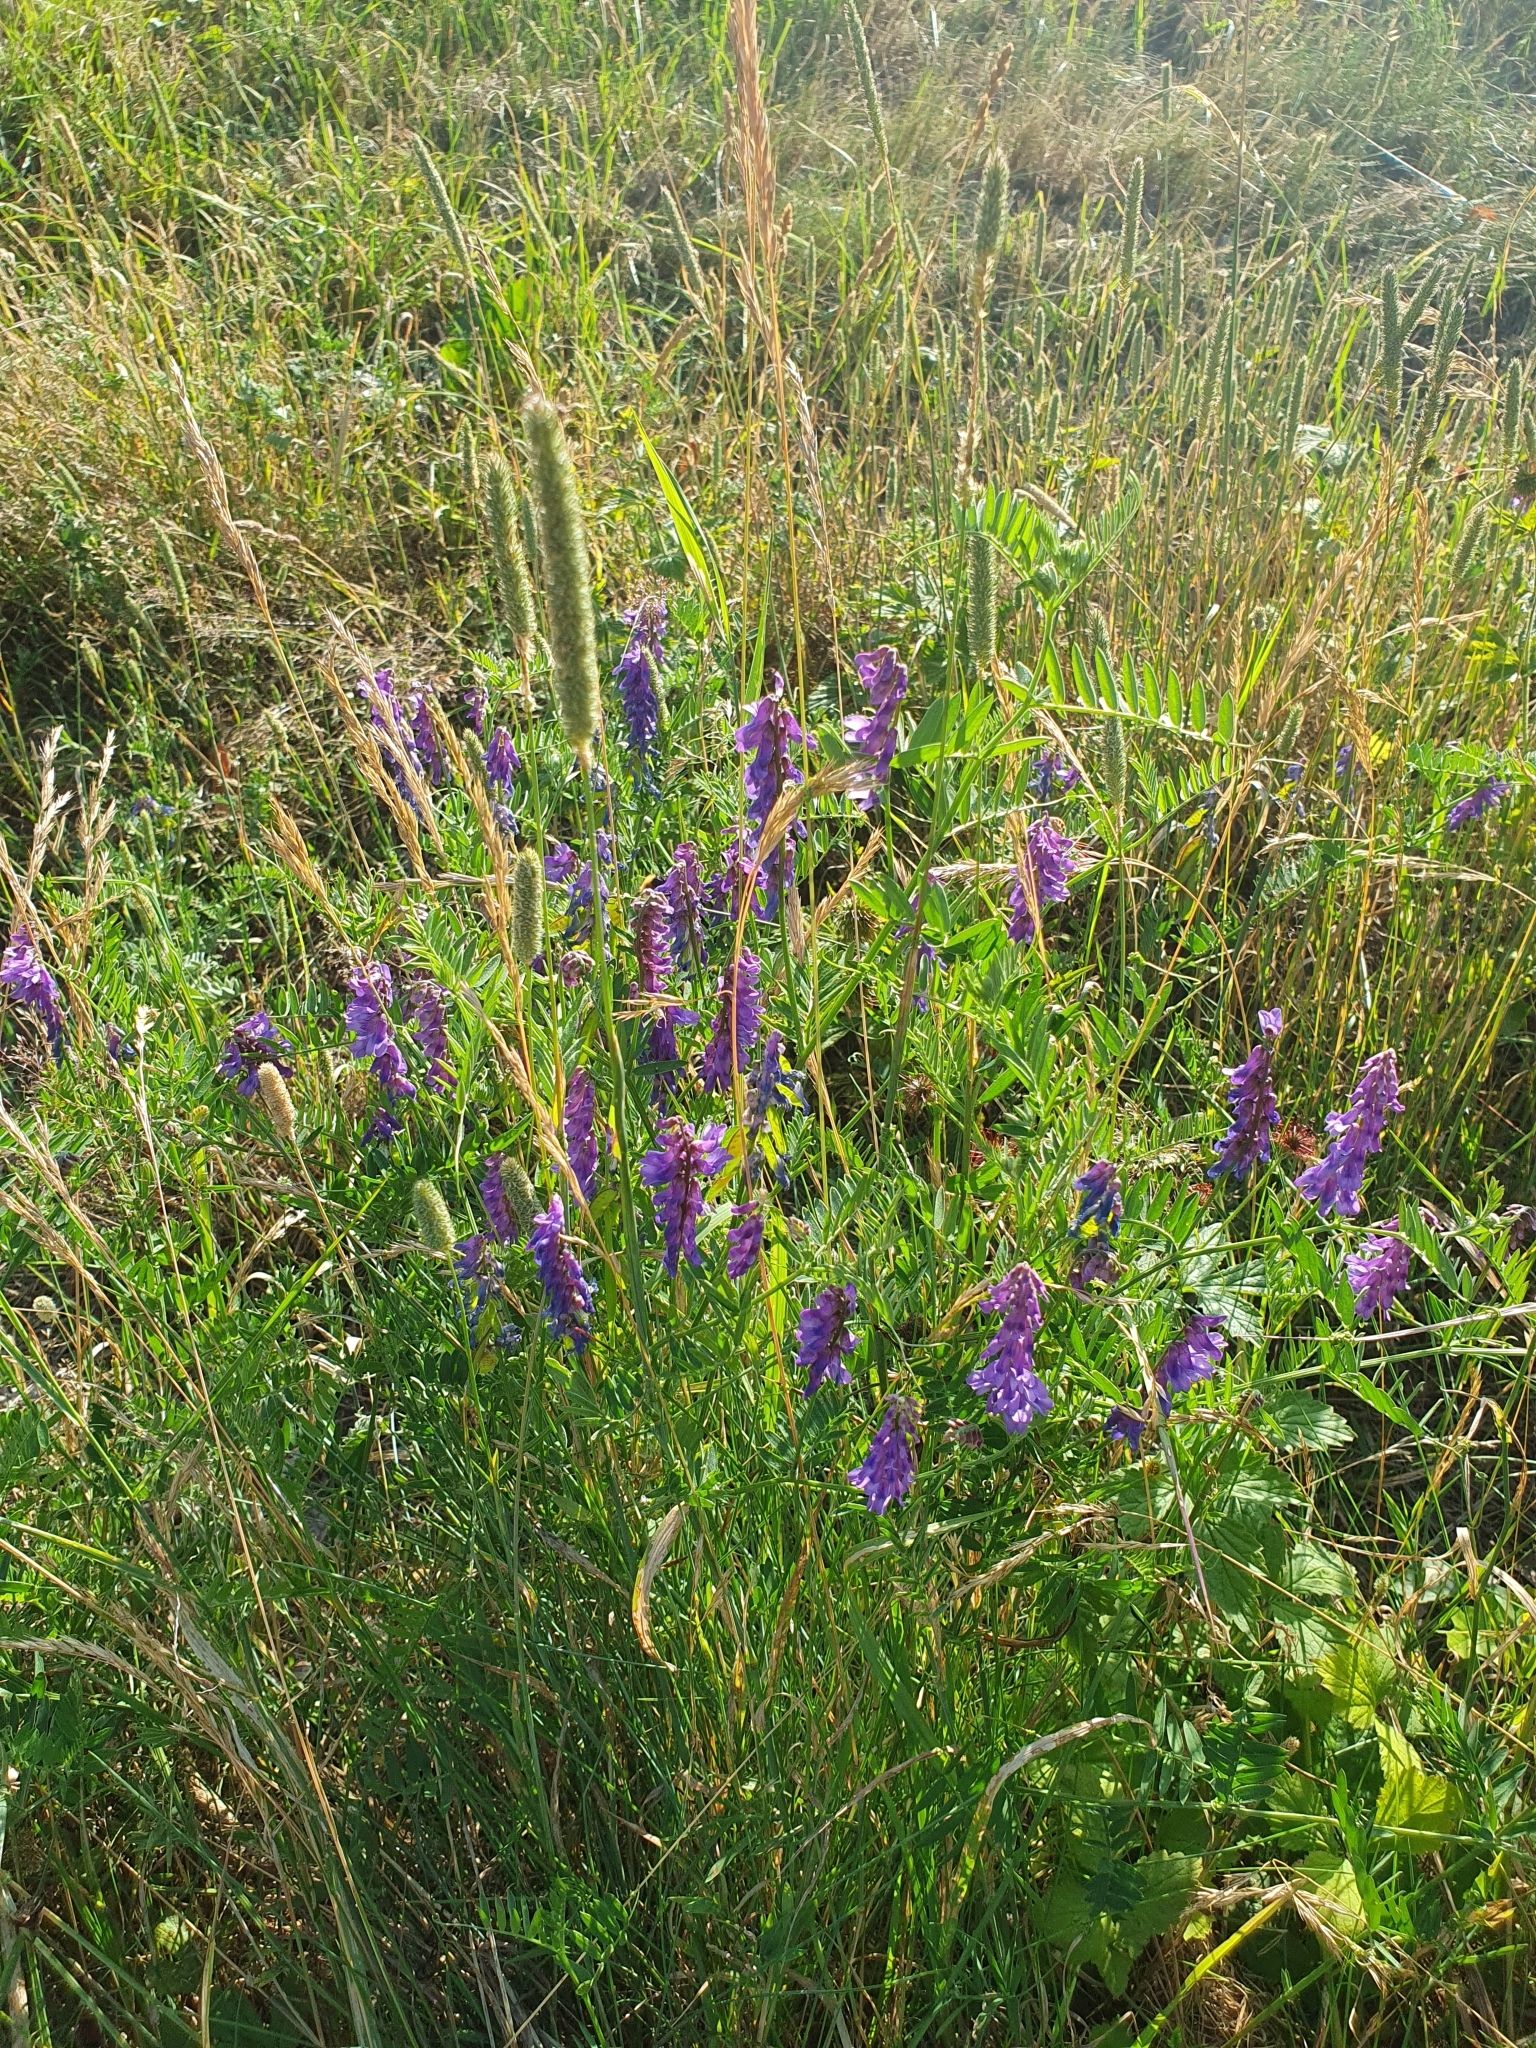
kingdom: Plantae
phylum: Tracheophyta
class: Magnoliopsida
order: Fabales
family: Fabaceae
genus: Vicia
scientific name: Vicia cracca
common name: Bird vetch
